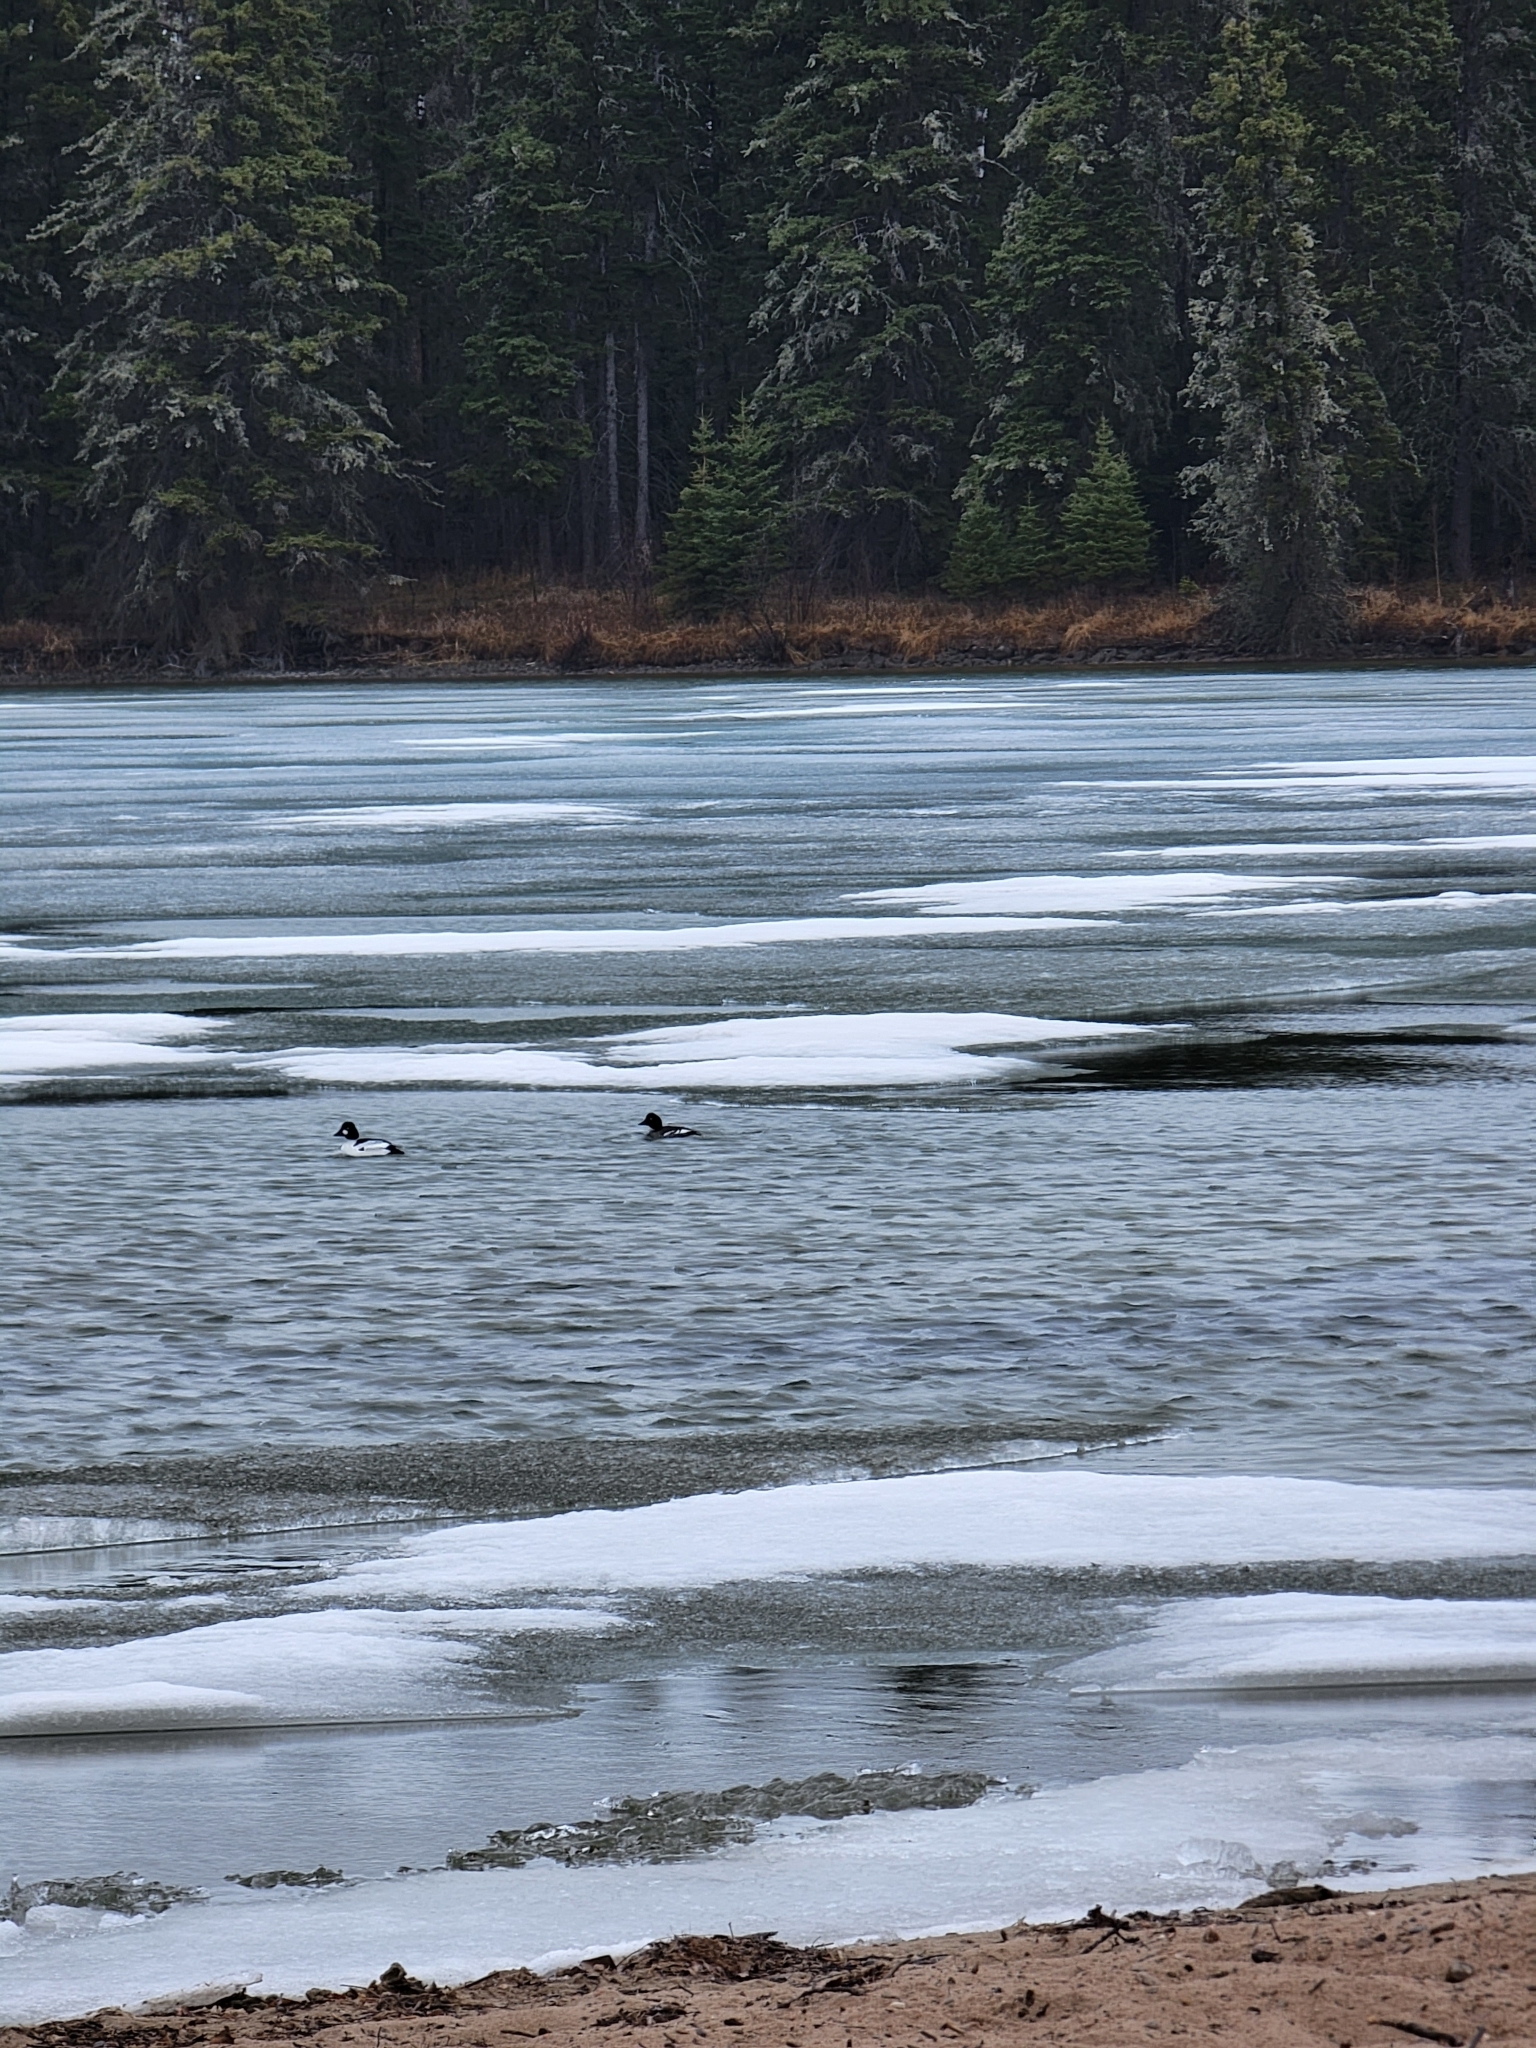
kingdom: Animalia
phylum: Chordata
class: Aves
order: Anseriformes
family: Anatidae
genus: Bucephala
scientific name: Bucephala clangula
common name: Common goldeneye
